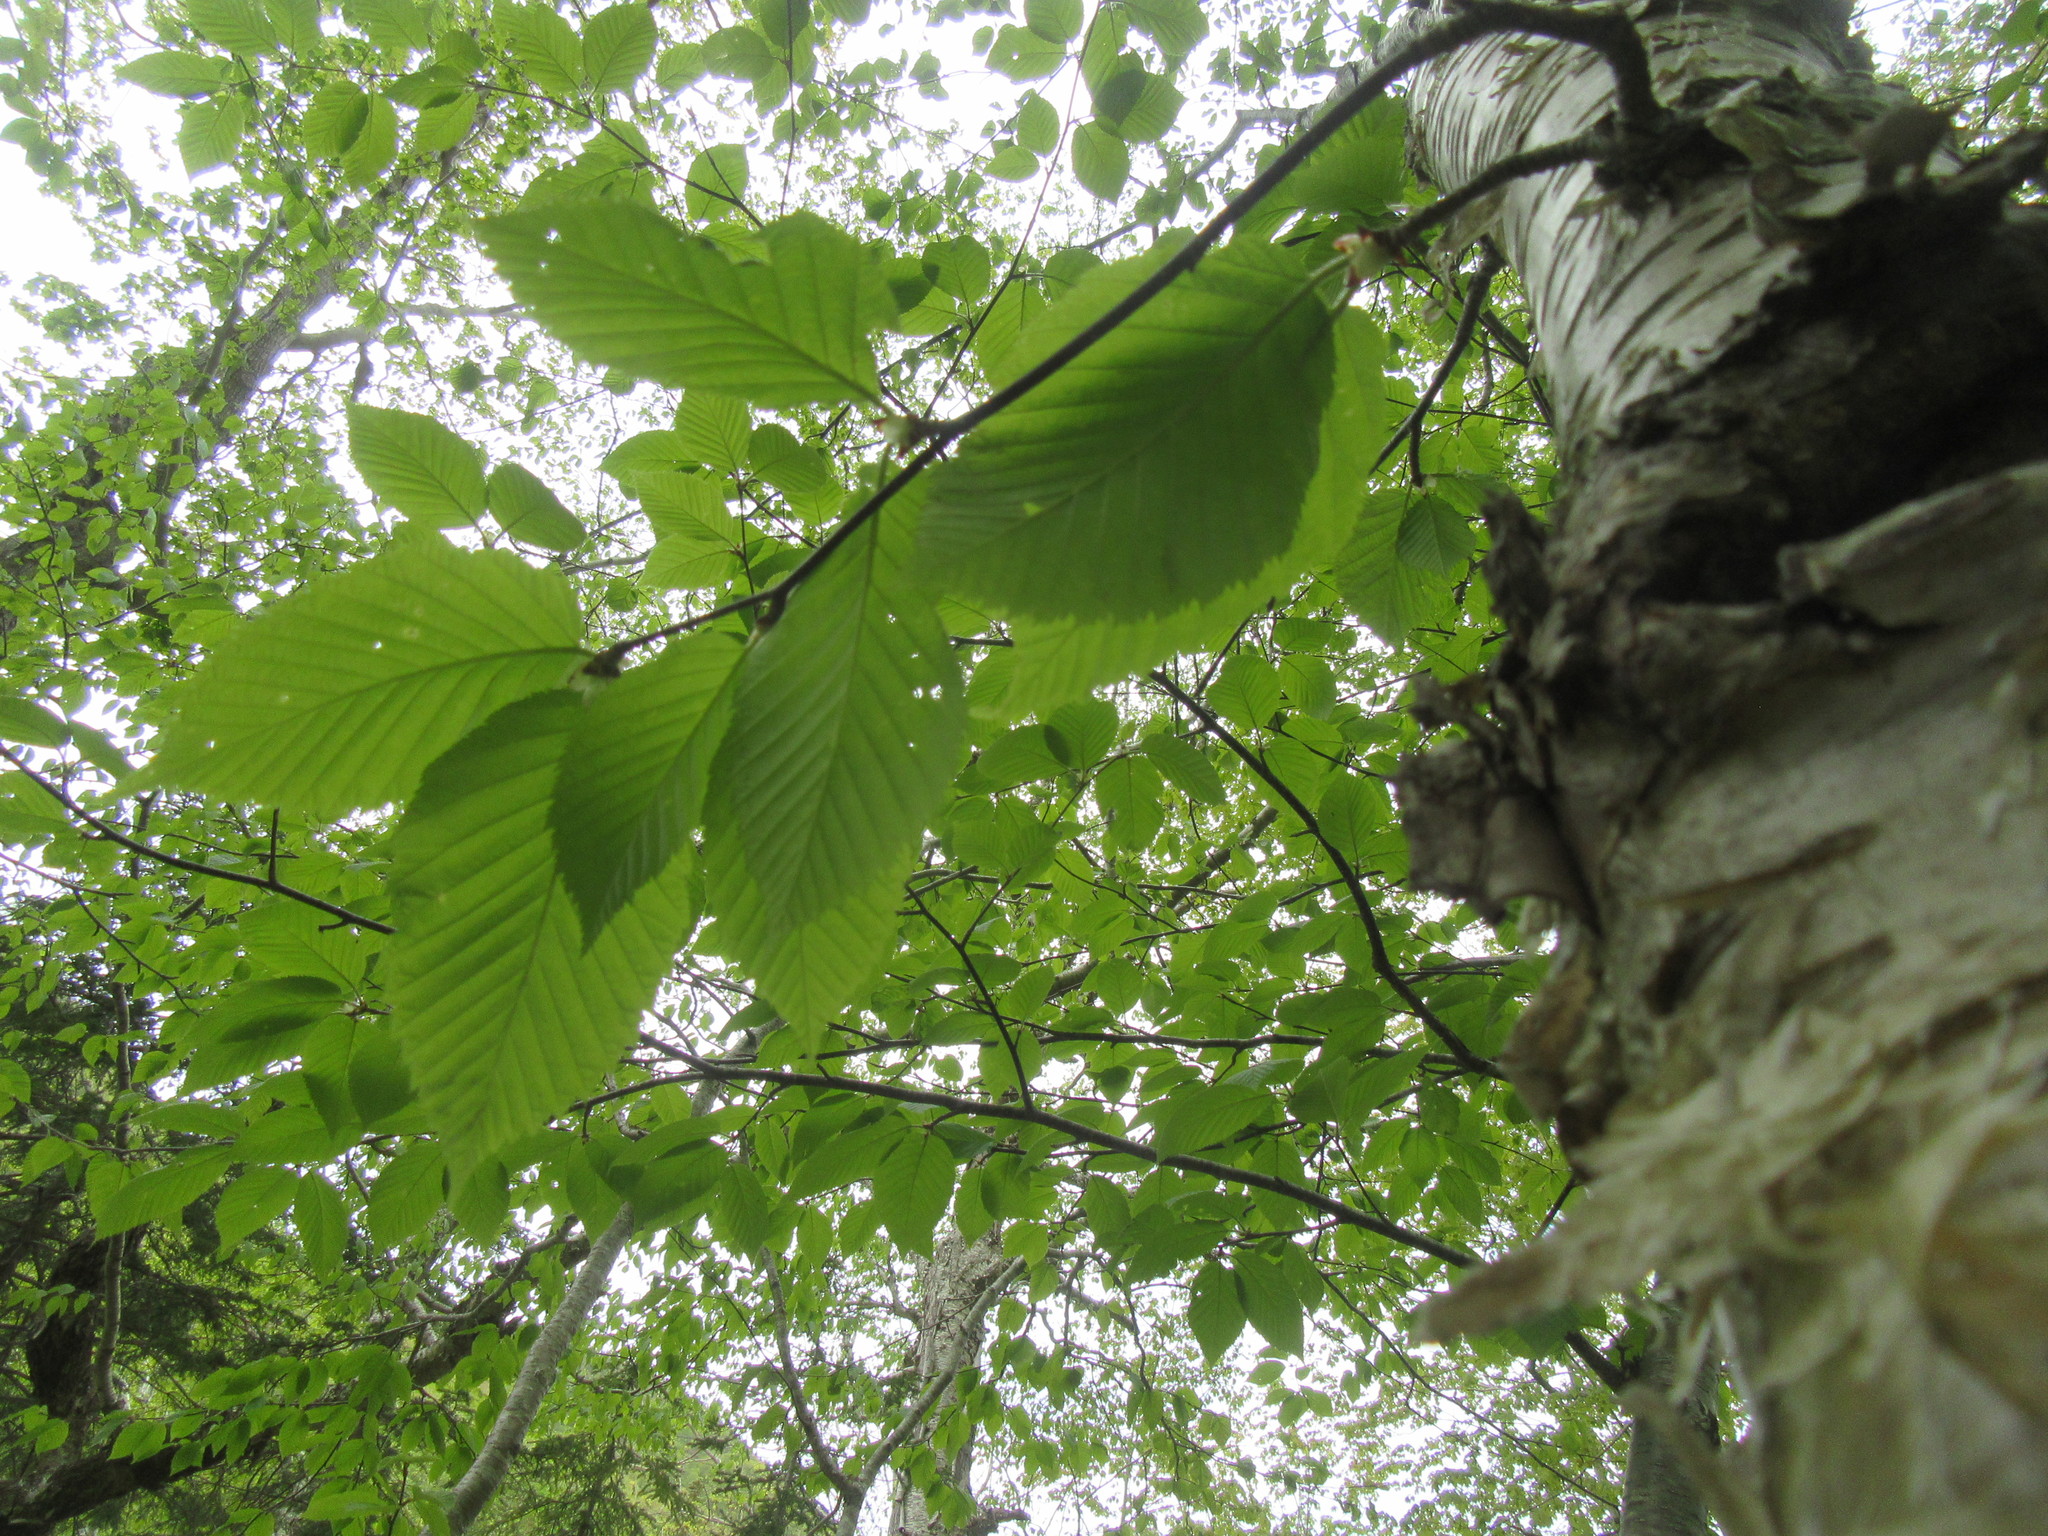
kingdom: Plantae
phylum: Tracheophyta
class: Magnoliopsida
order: Fagales
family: Betulaceae
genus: Betula
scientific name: Betula alleghaniensis
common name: Yellow birch
